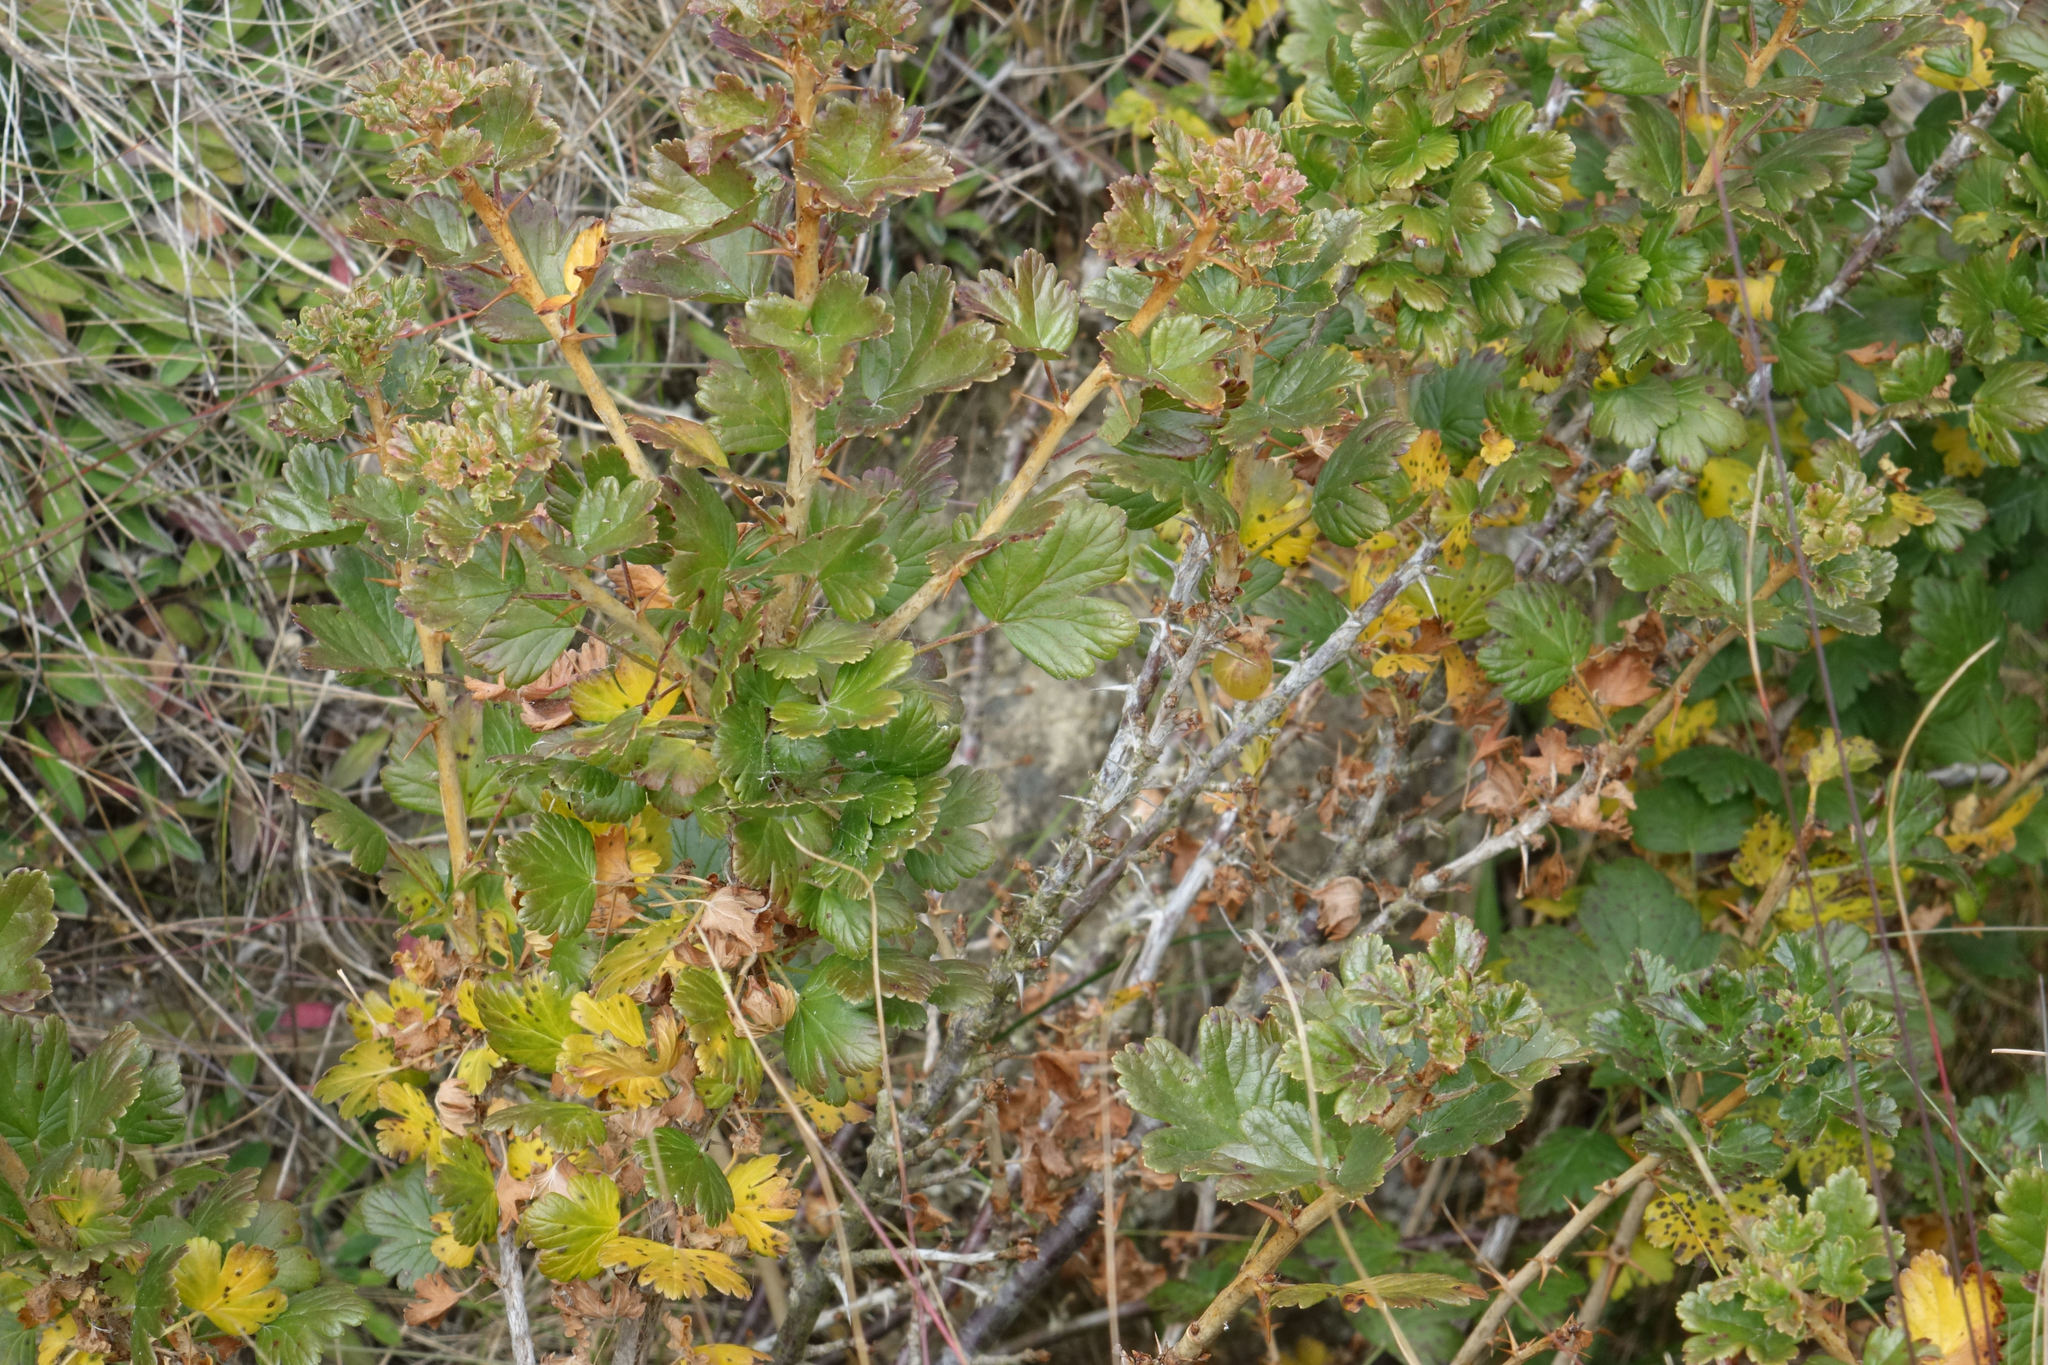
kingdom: Plantae
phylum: Tracheophyta
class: Magnoliopsida
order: Saxifragales
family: Grossulariaceae
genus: Ribes
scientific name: Ribes uva-crispa
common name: Gooseberry
